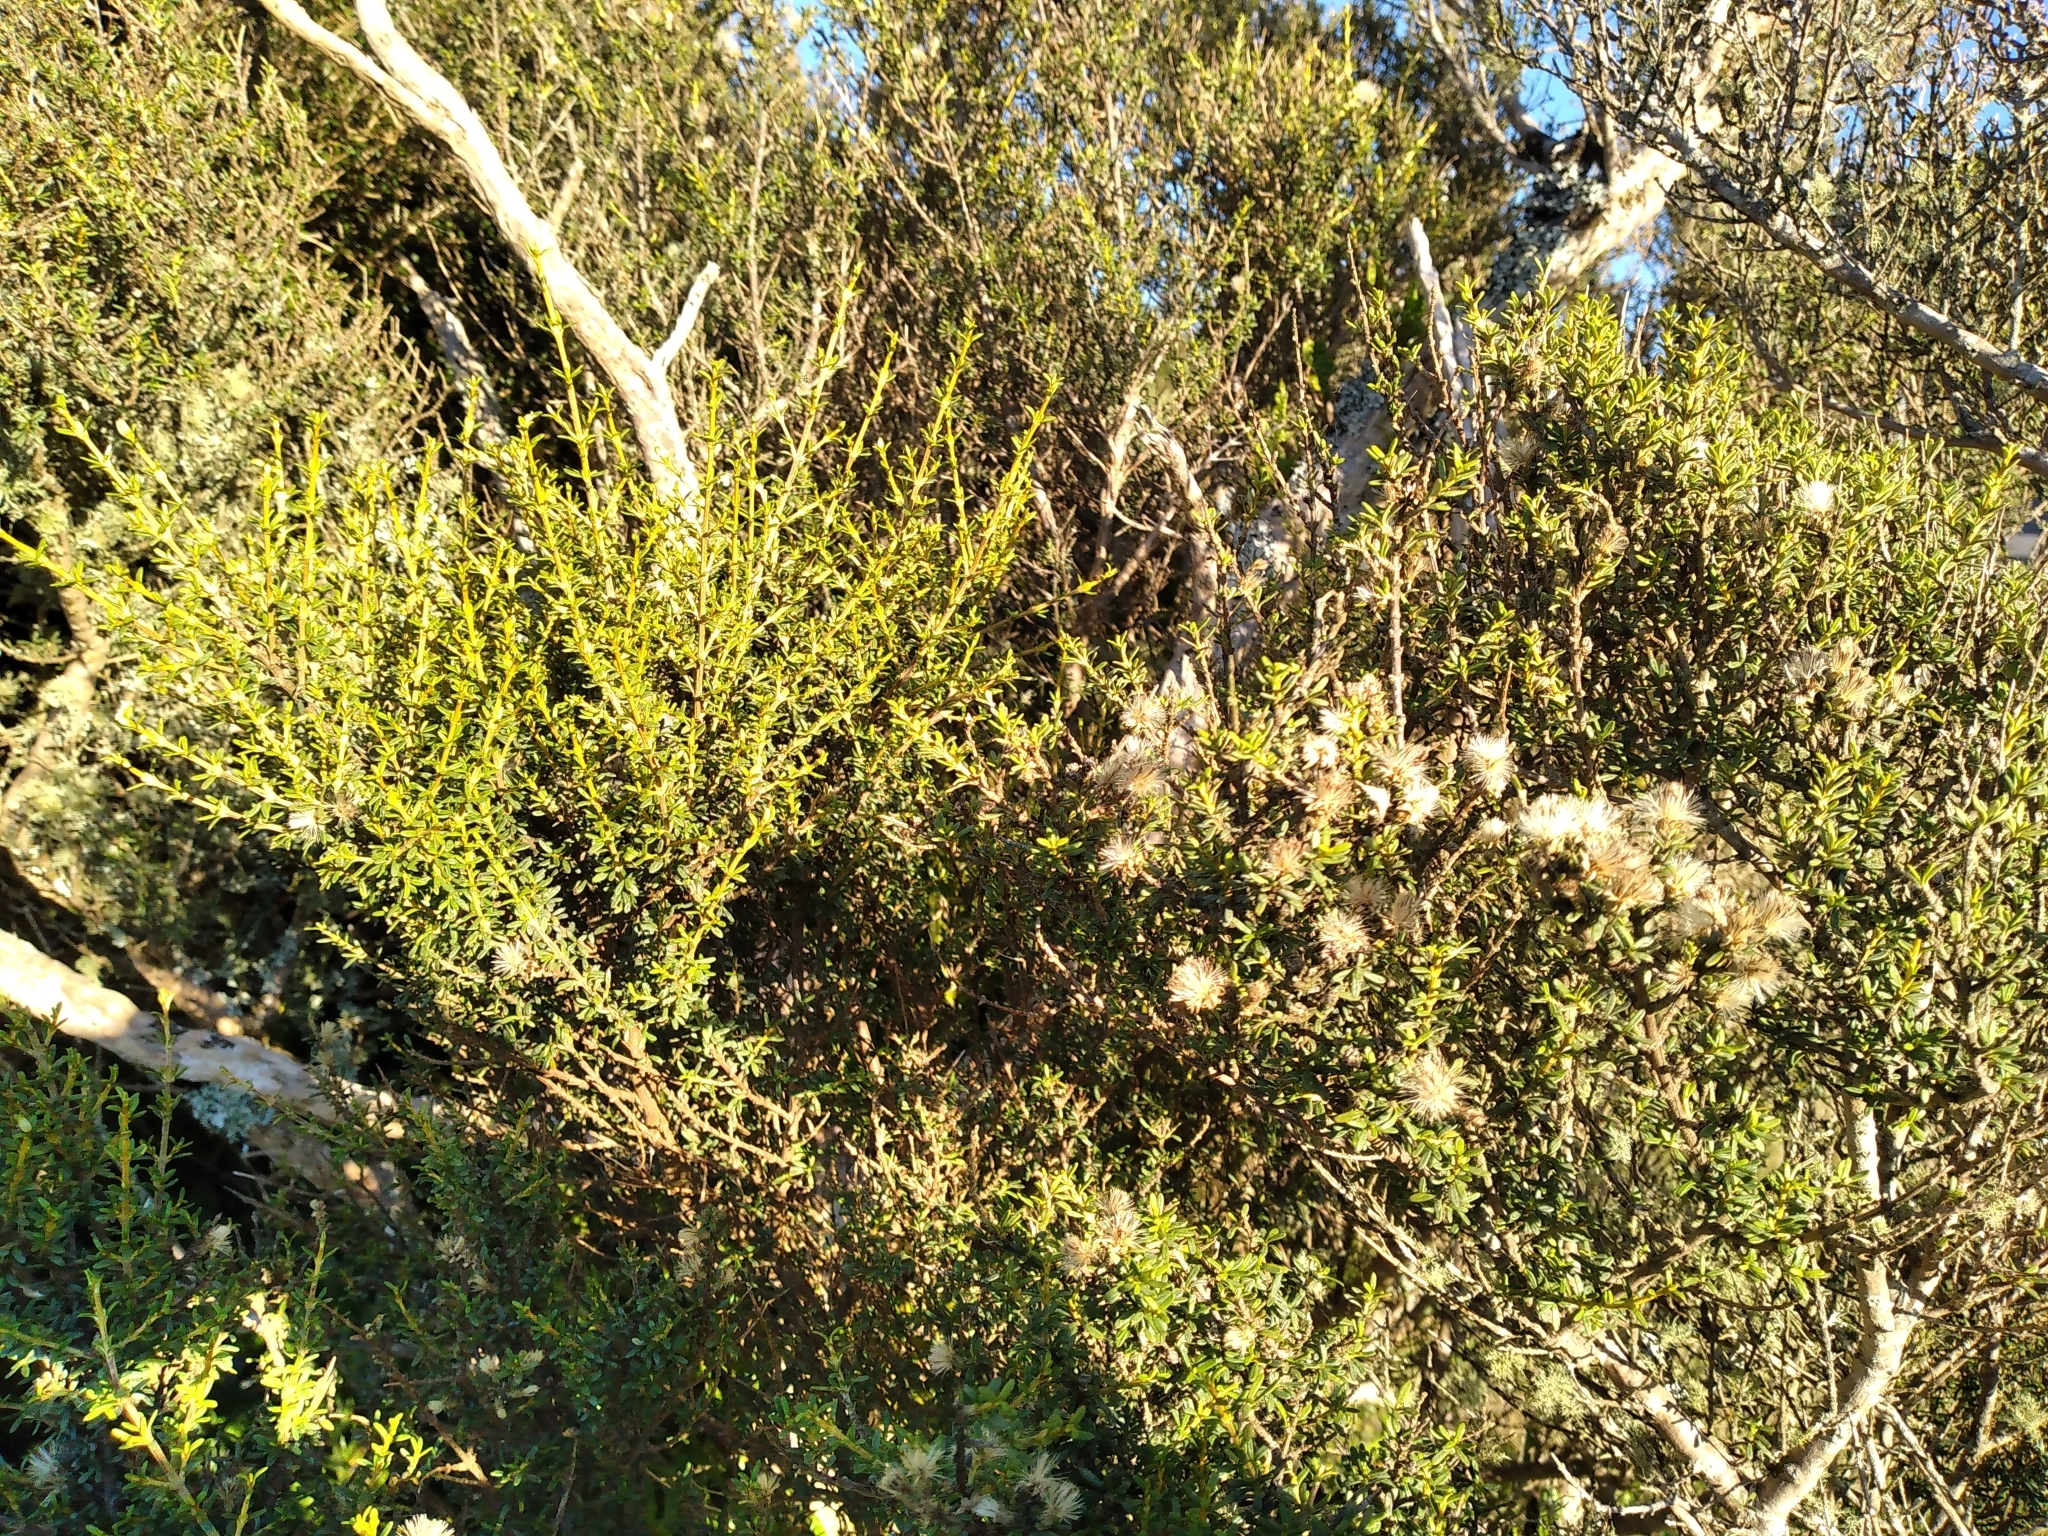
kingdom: Plantae
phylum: Tracheophyta
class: Magnoliopsida
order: Asterales
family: Asteraceae
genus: Olearia
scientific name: Olearia solandri
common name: Coastal daisybush
